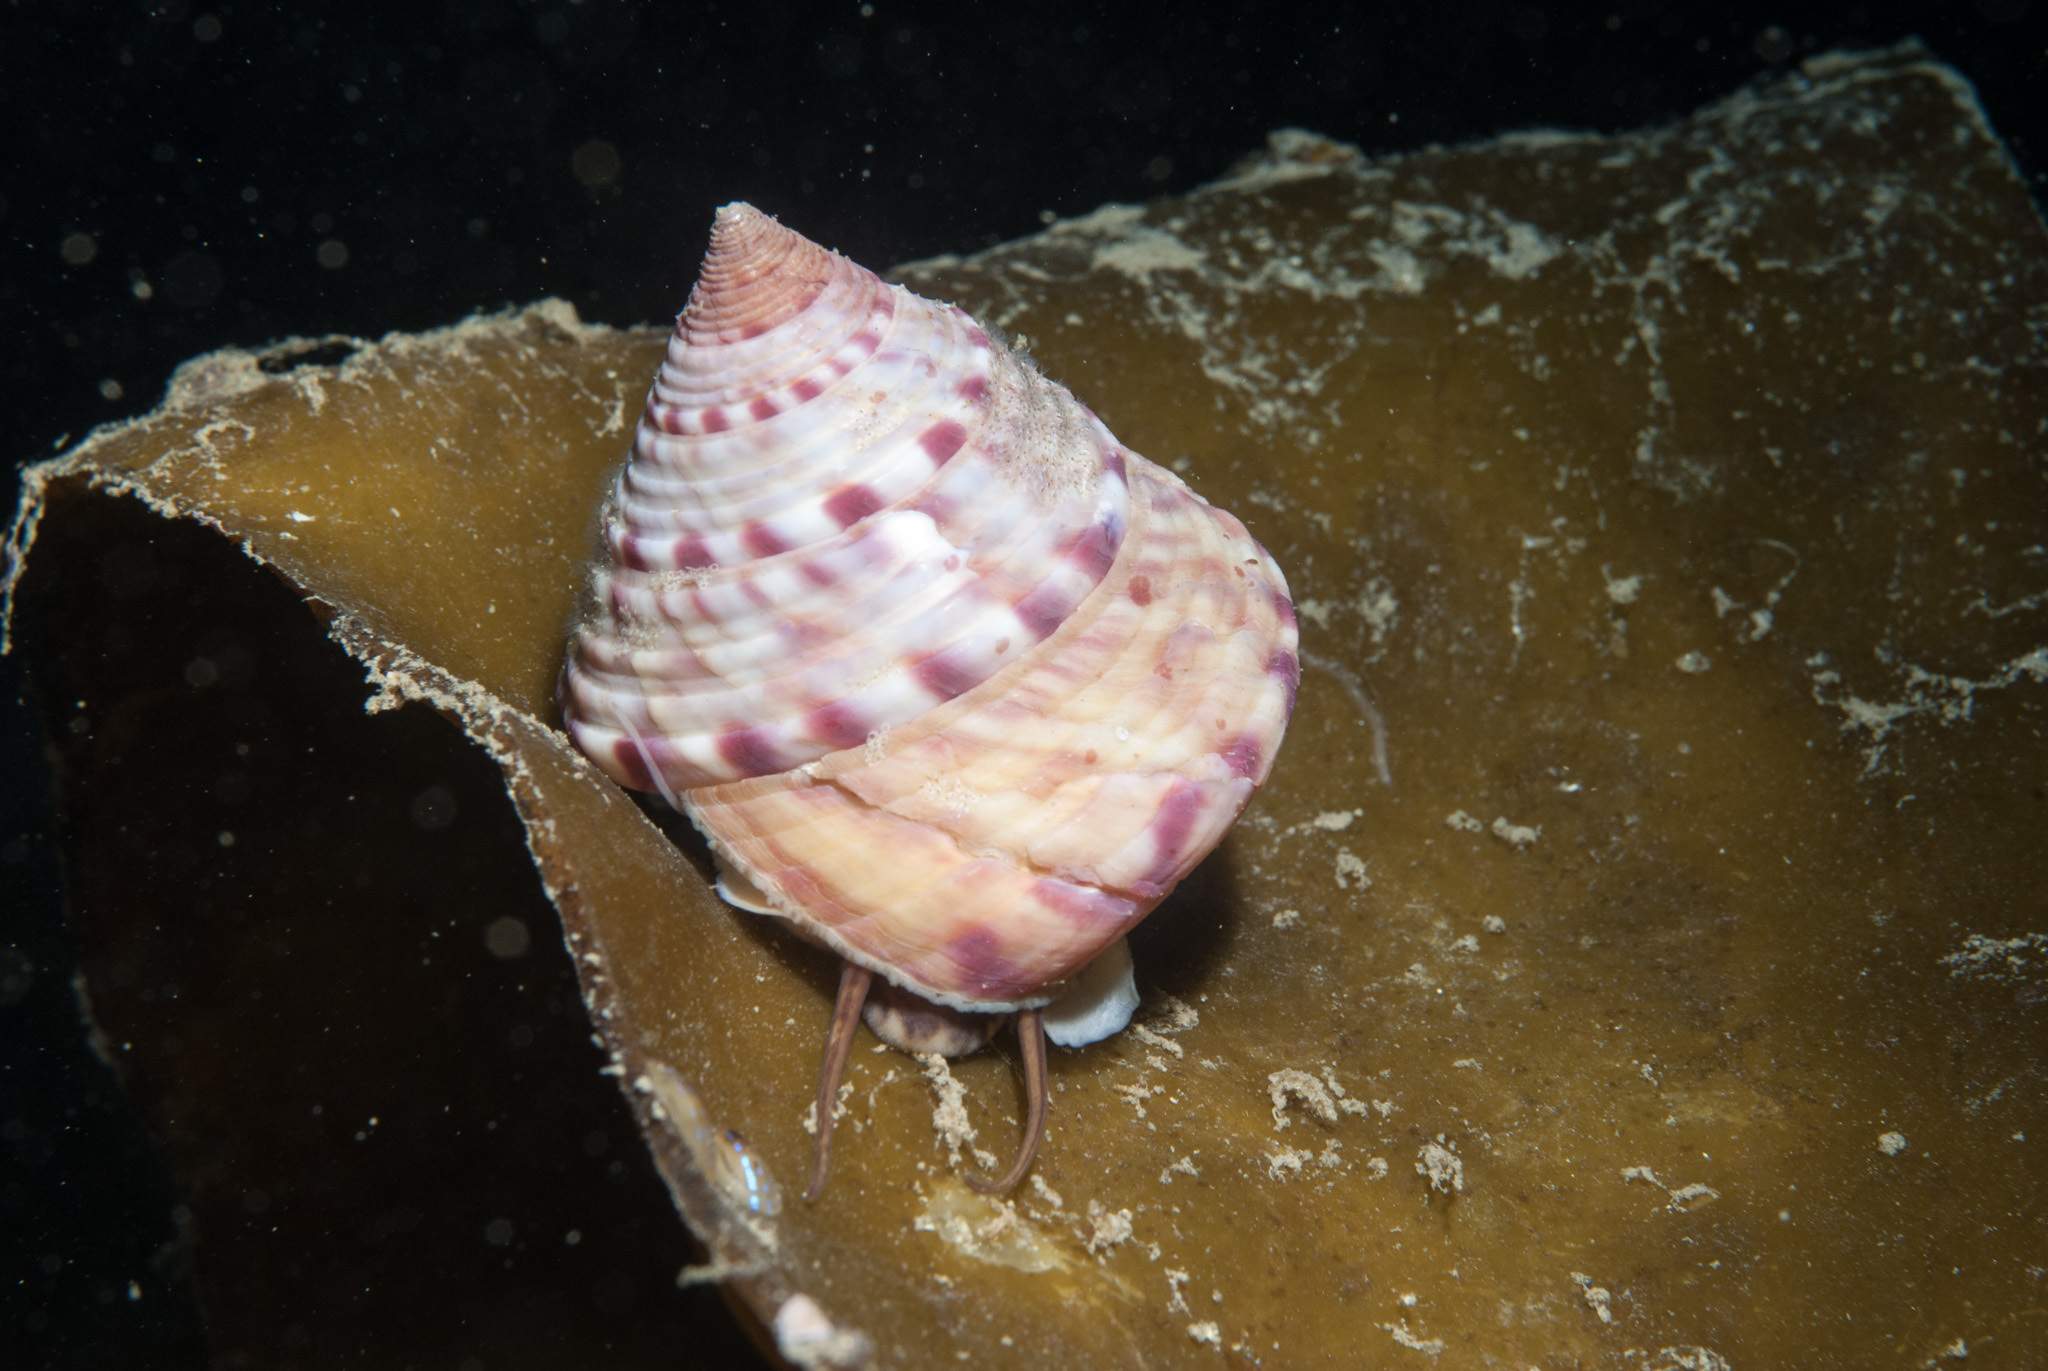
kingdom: Animalia
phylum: Mollusca
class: Gastropoda
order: Trochida
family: Calliostomatidae
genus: Calliostoma
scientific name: Calliostoma zizyphinum
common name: Painted top shell
